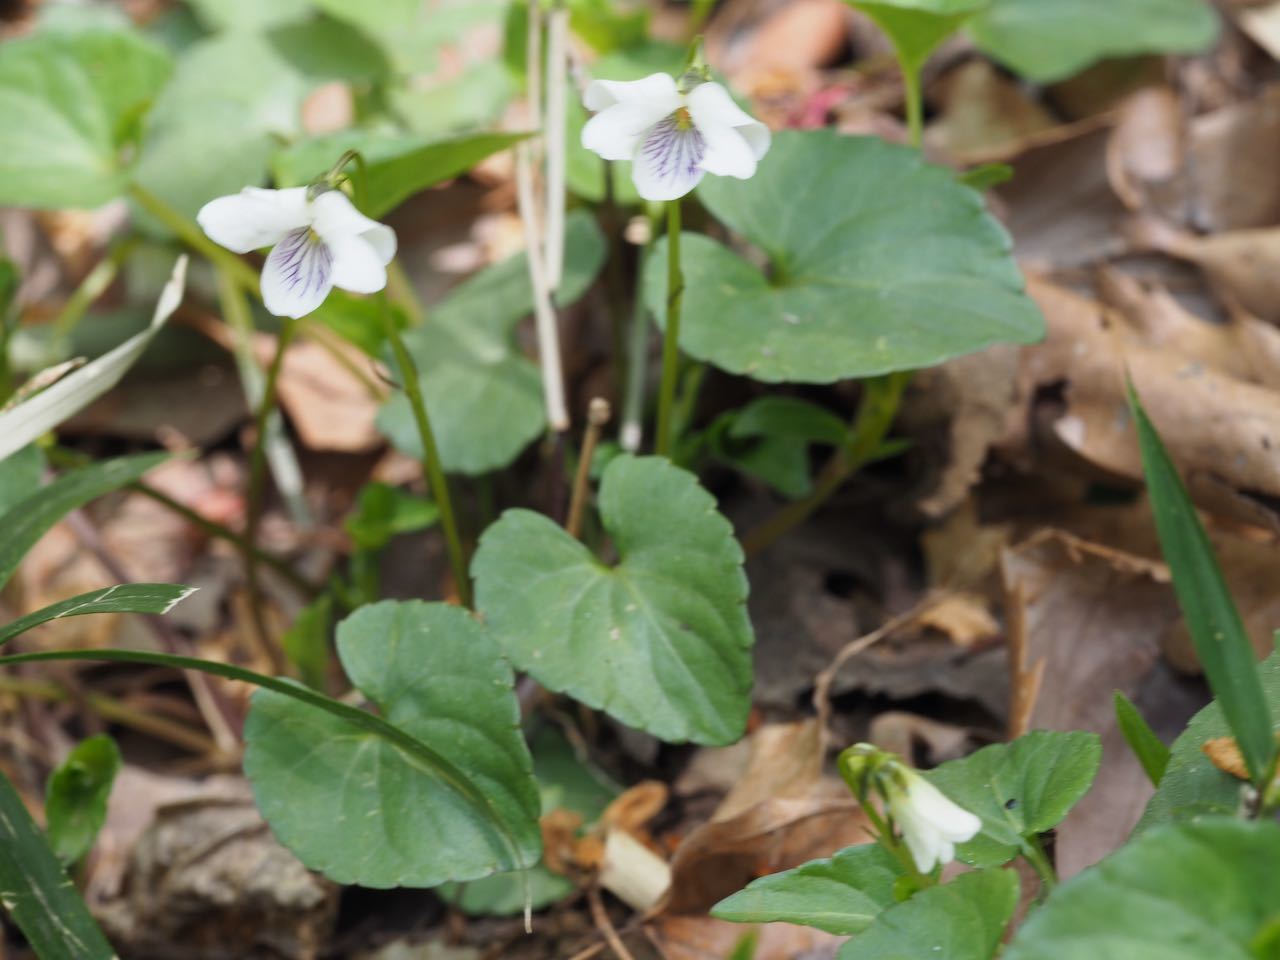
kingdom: Plantae
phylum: Tracheophyta
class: Magnoliopsida
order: Malpighiales
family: Violaceae
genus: Viola
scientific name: Viola
